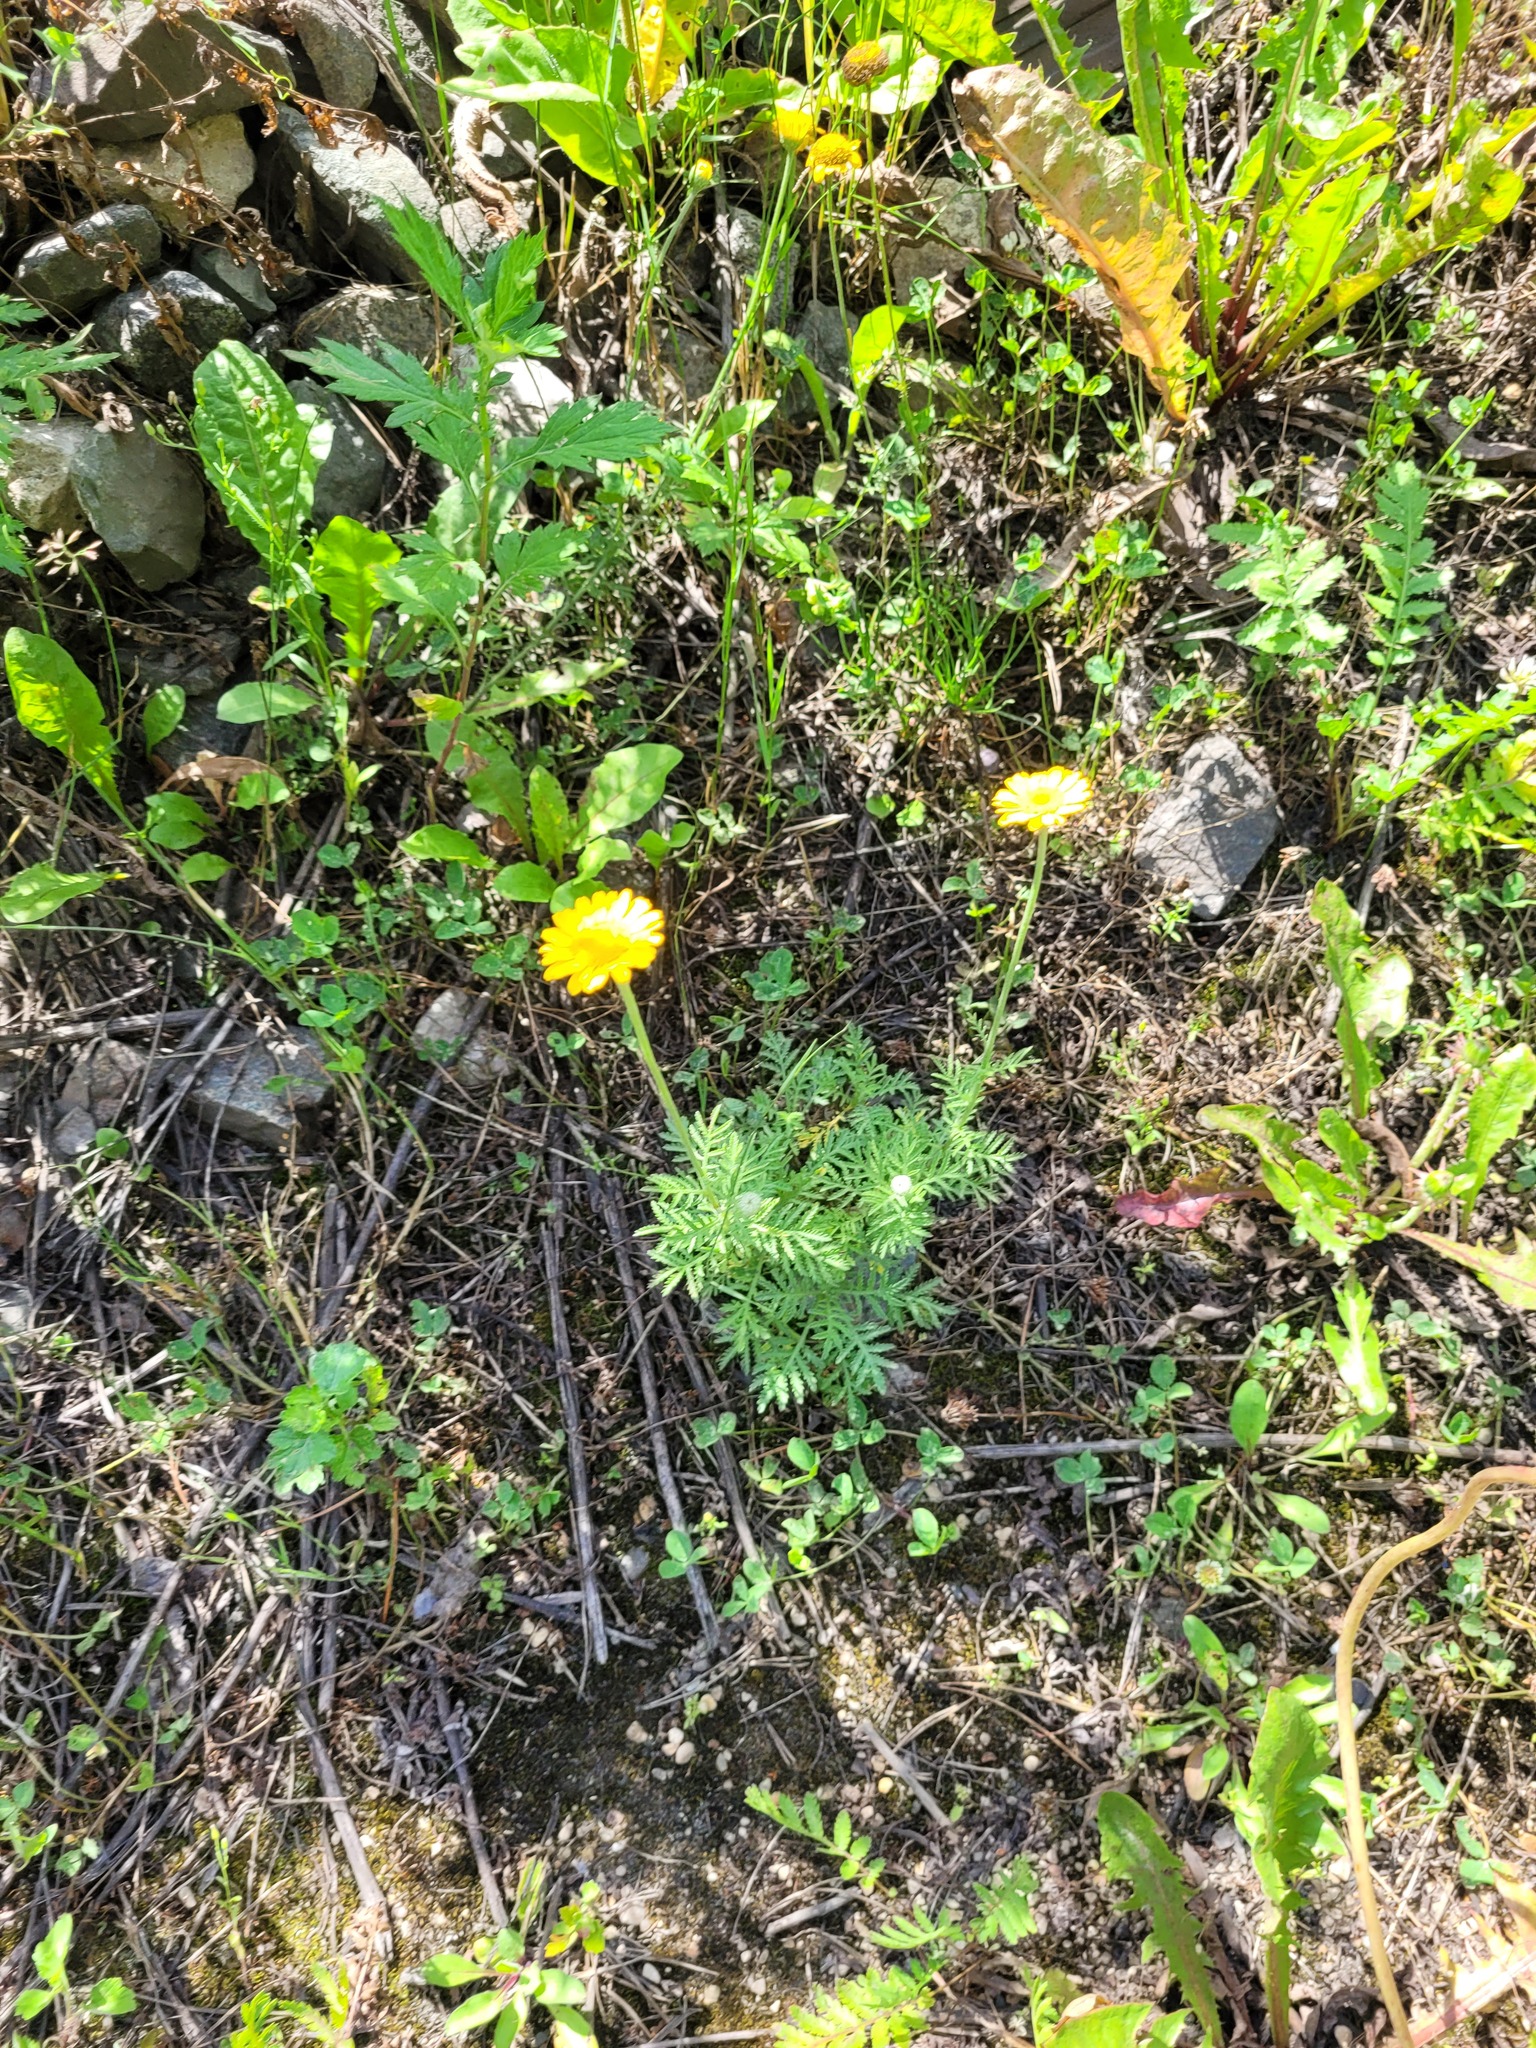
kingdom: Plantae
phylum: Tracheophyta
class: Magnoliopsida
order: Asterales
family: Asteraceae
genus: Cota
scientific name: Cota tinctoria
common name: Golden chamomile
